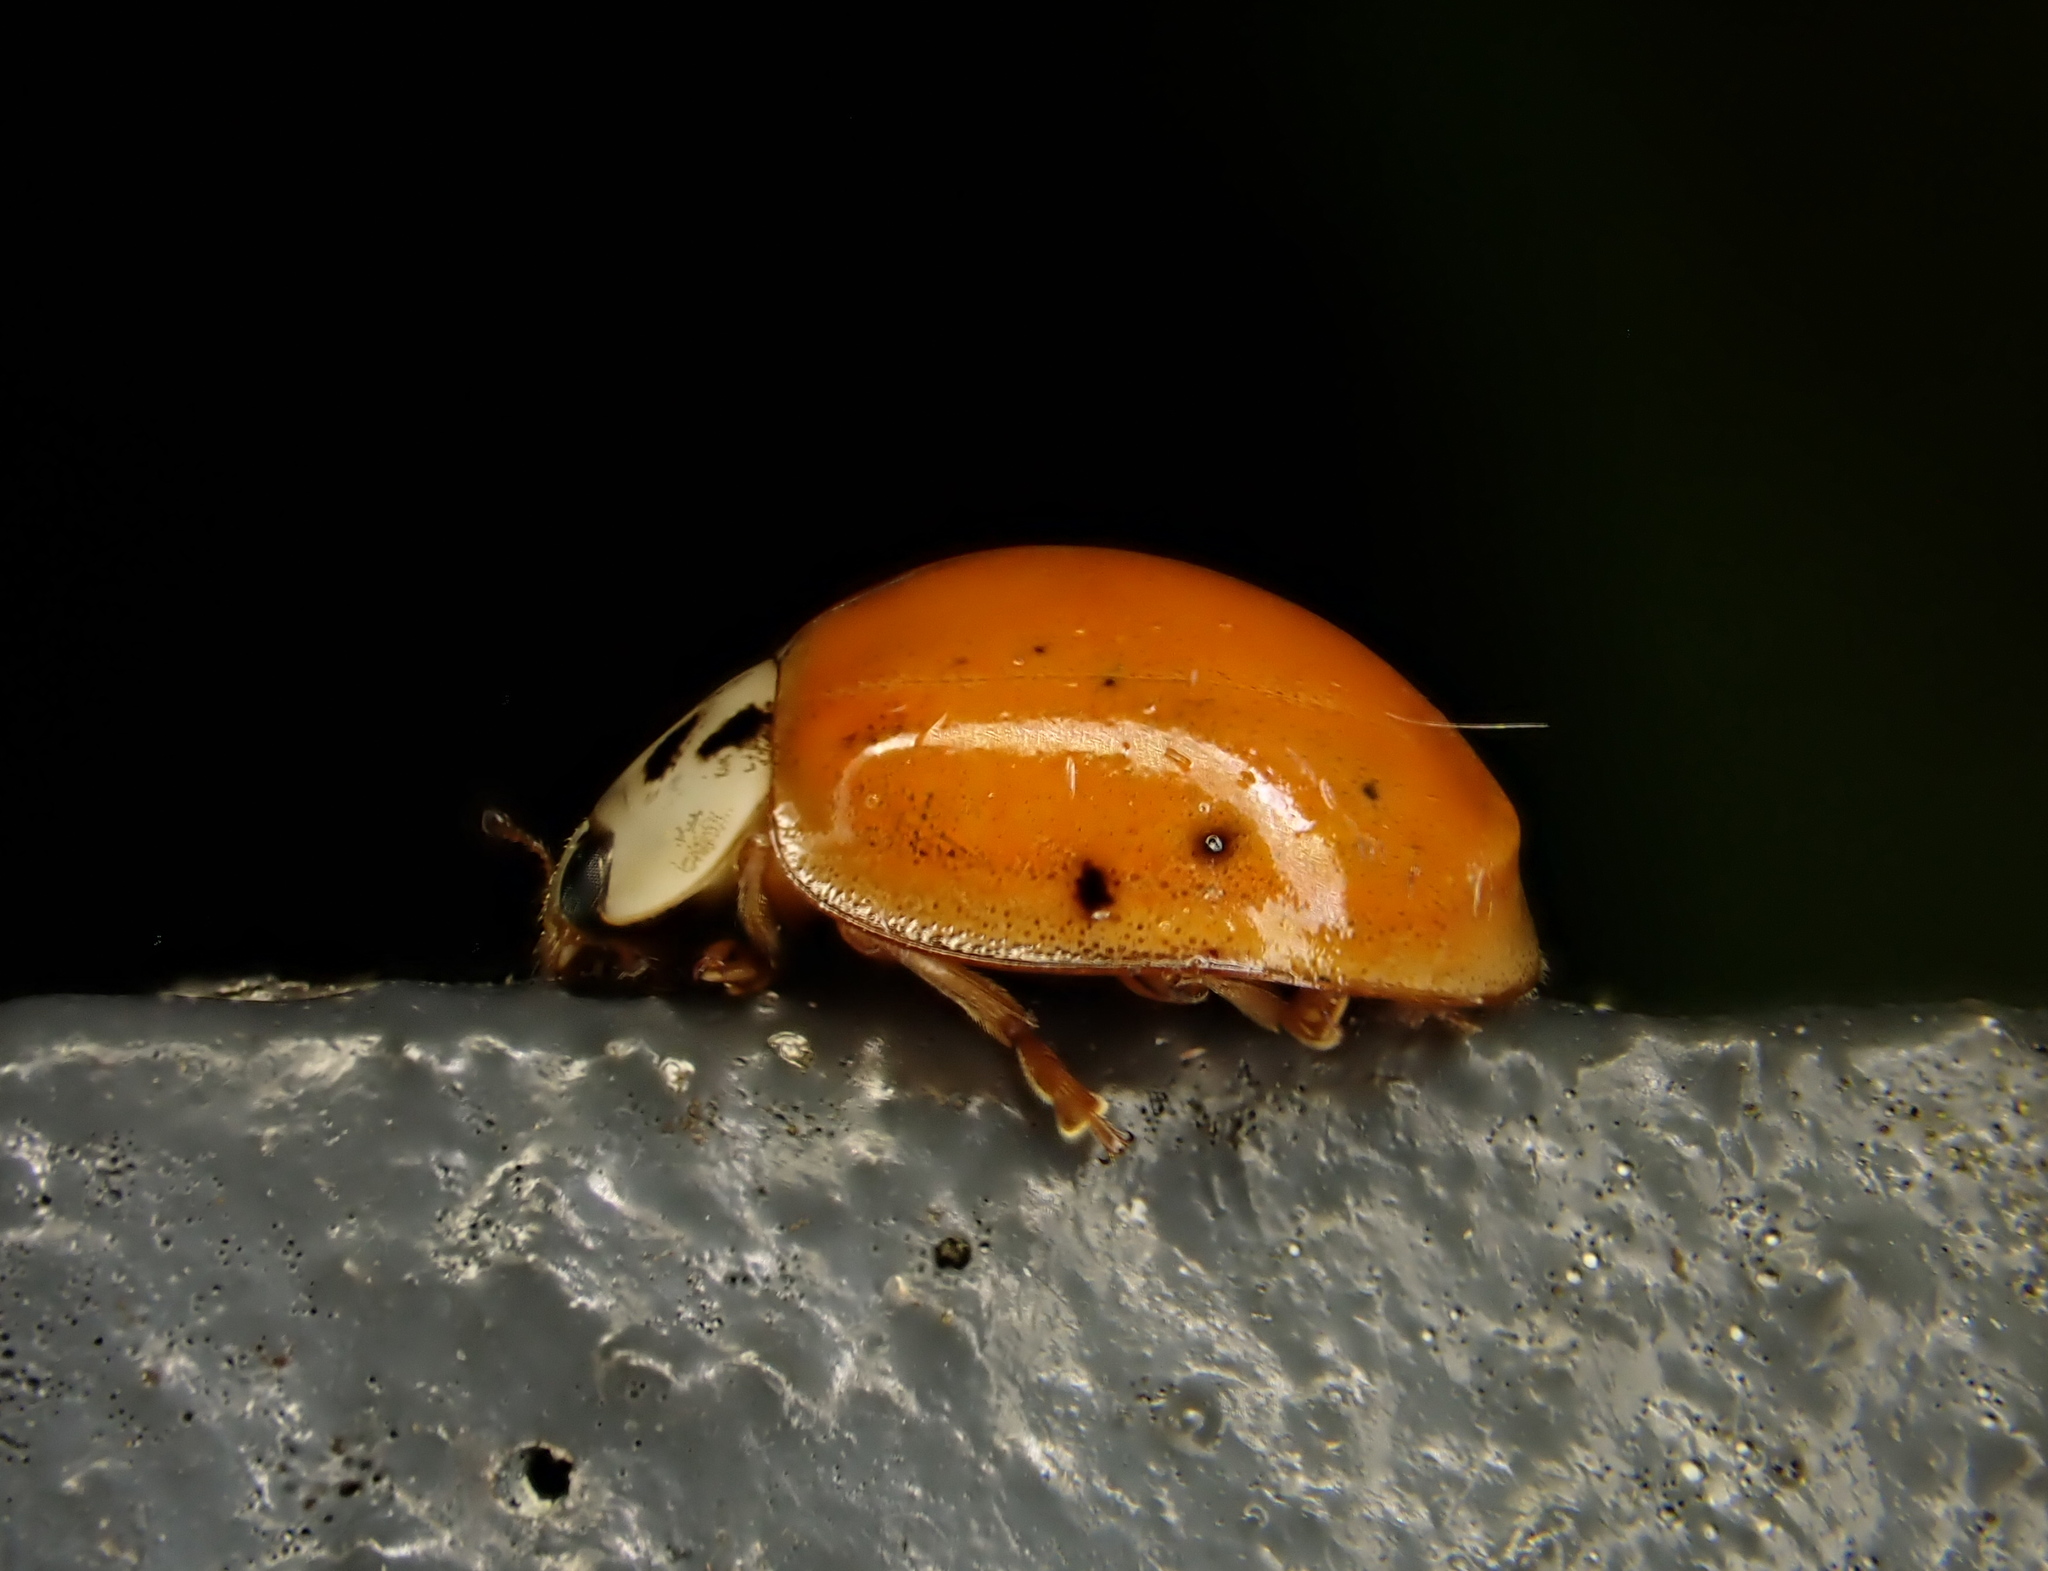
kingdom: Animalia
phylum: Arthropoda
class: Insecta
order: Coleoptera
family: Coccinellidae
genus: Harmonia
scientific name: Harmonia axyridis
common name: Harlequin ladybird
